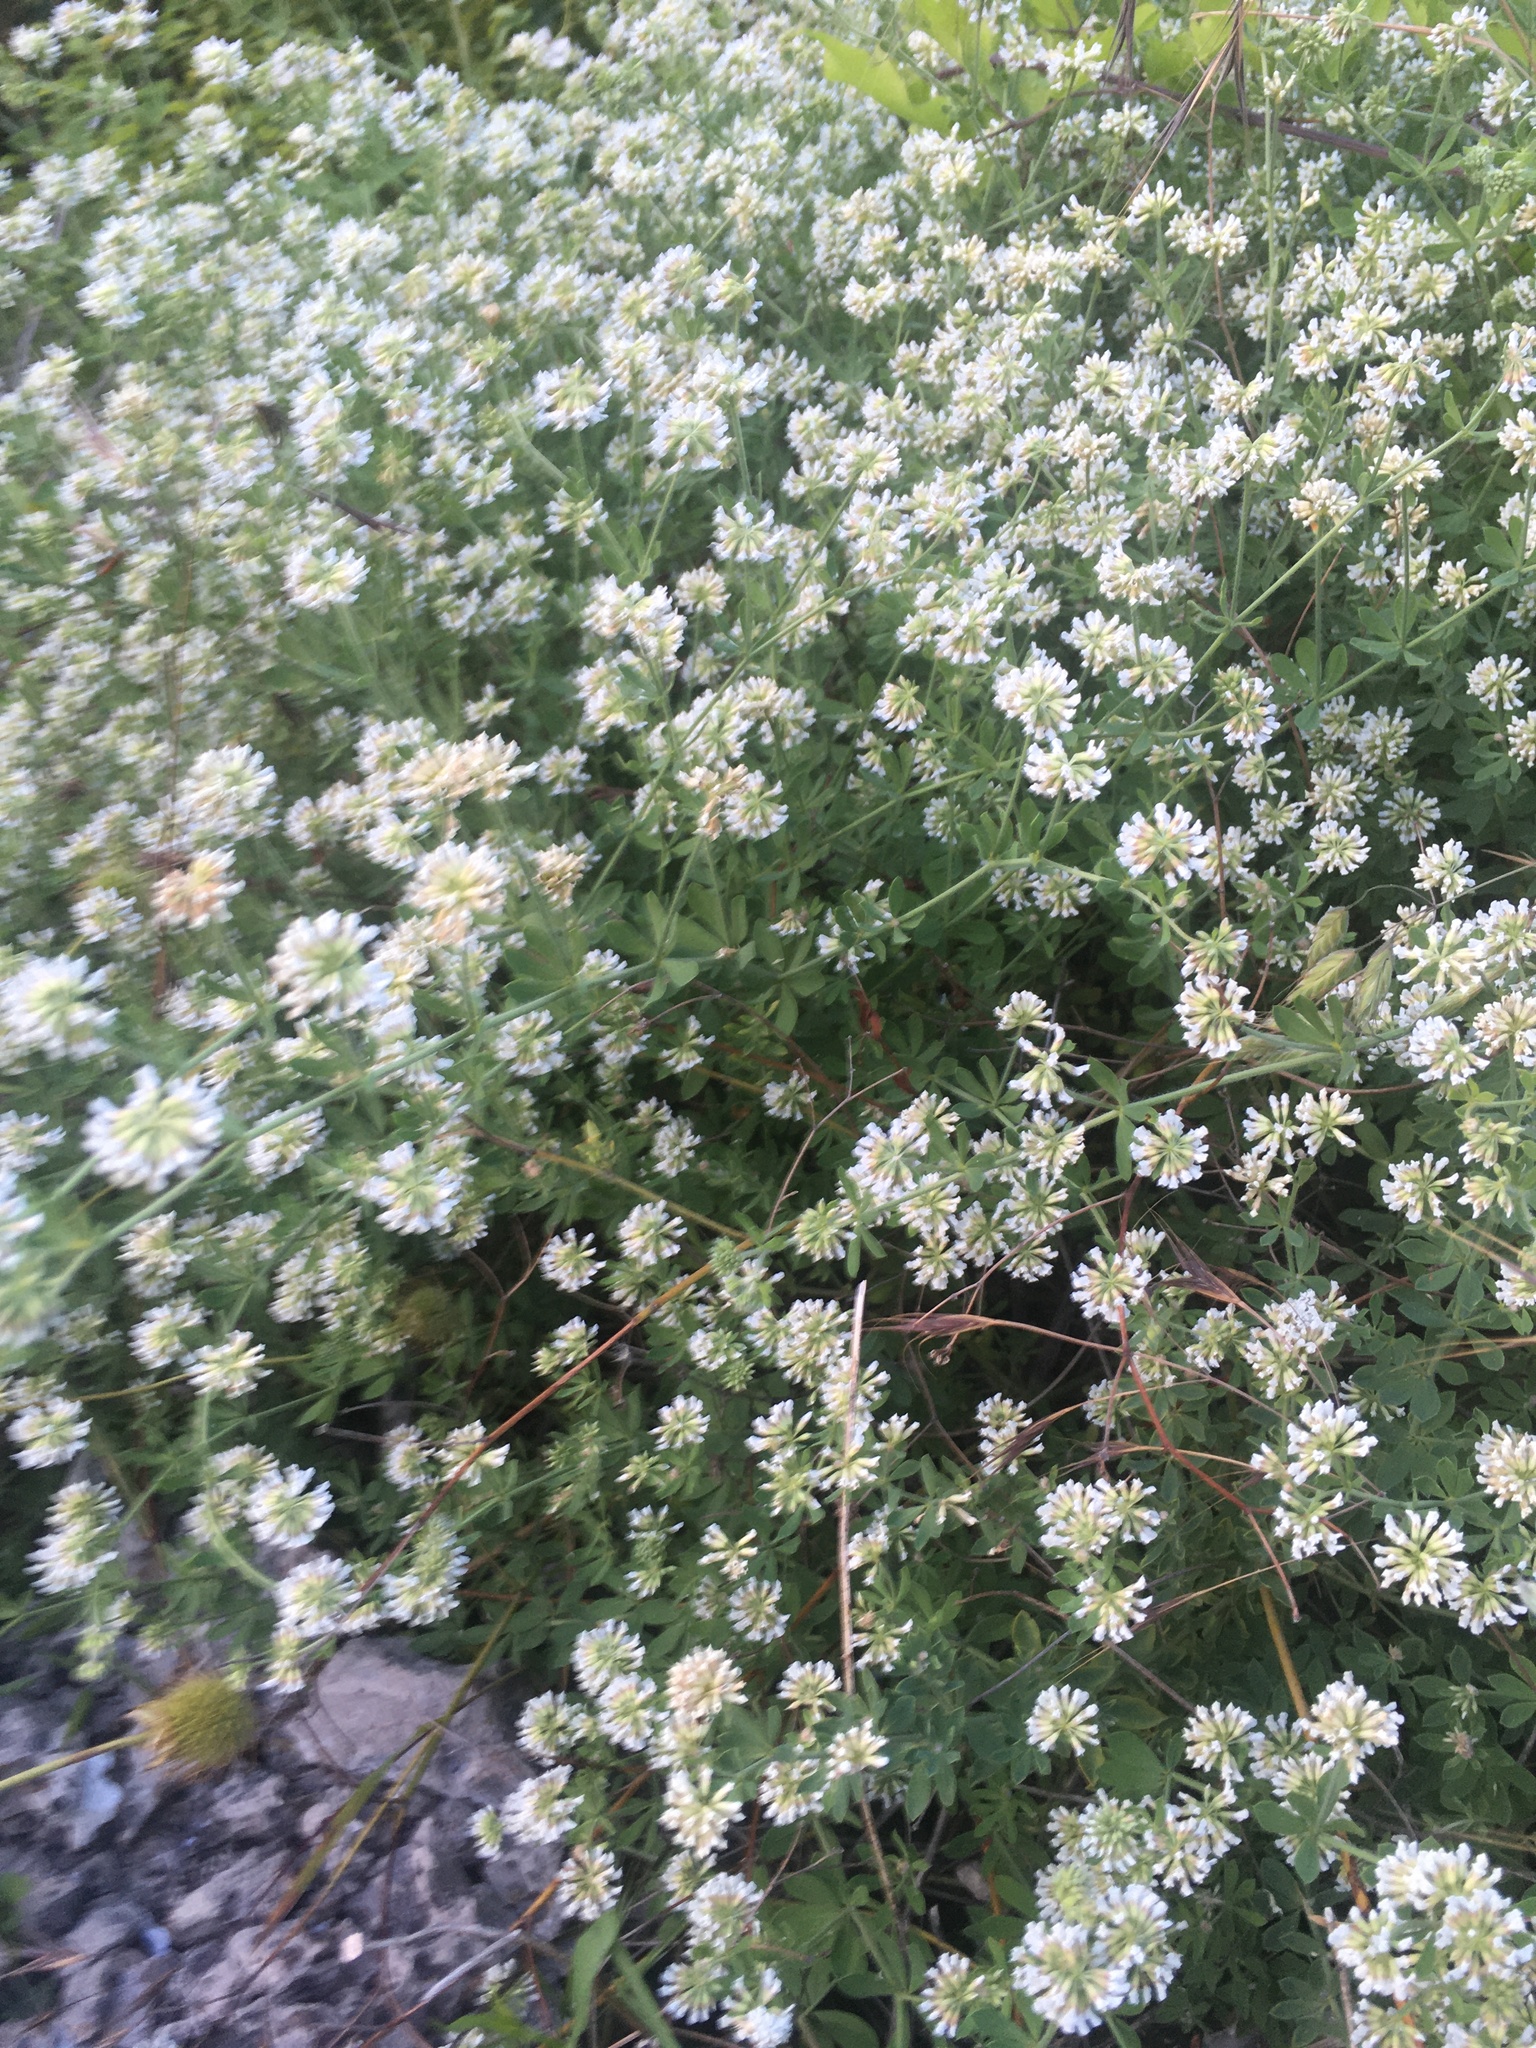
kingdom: Plantae
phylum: Tracheophyta
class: Magnoliopsida
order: Fabales
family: Fabaceae
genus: Lotus
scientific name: Lotus herbaceus
